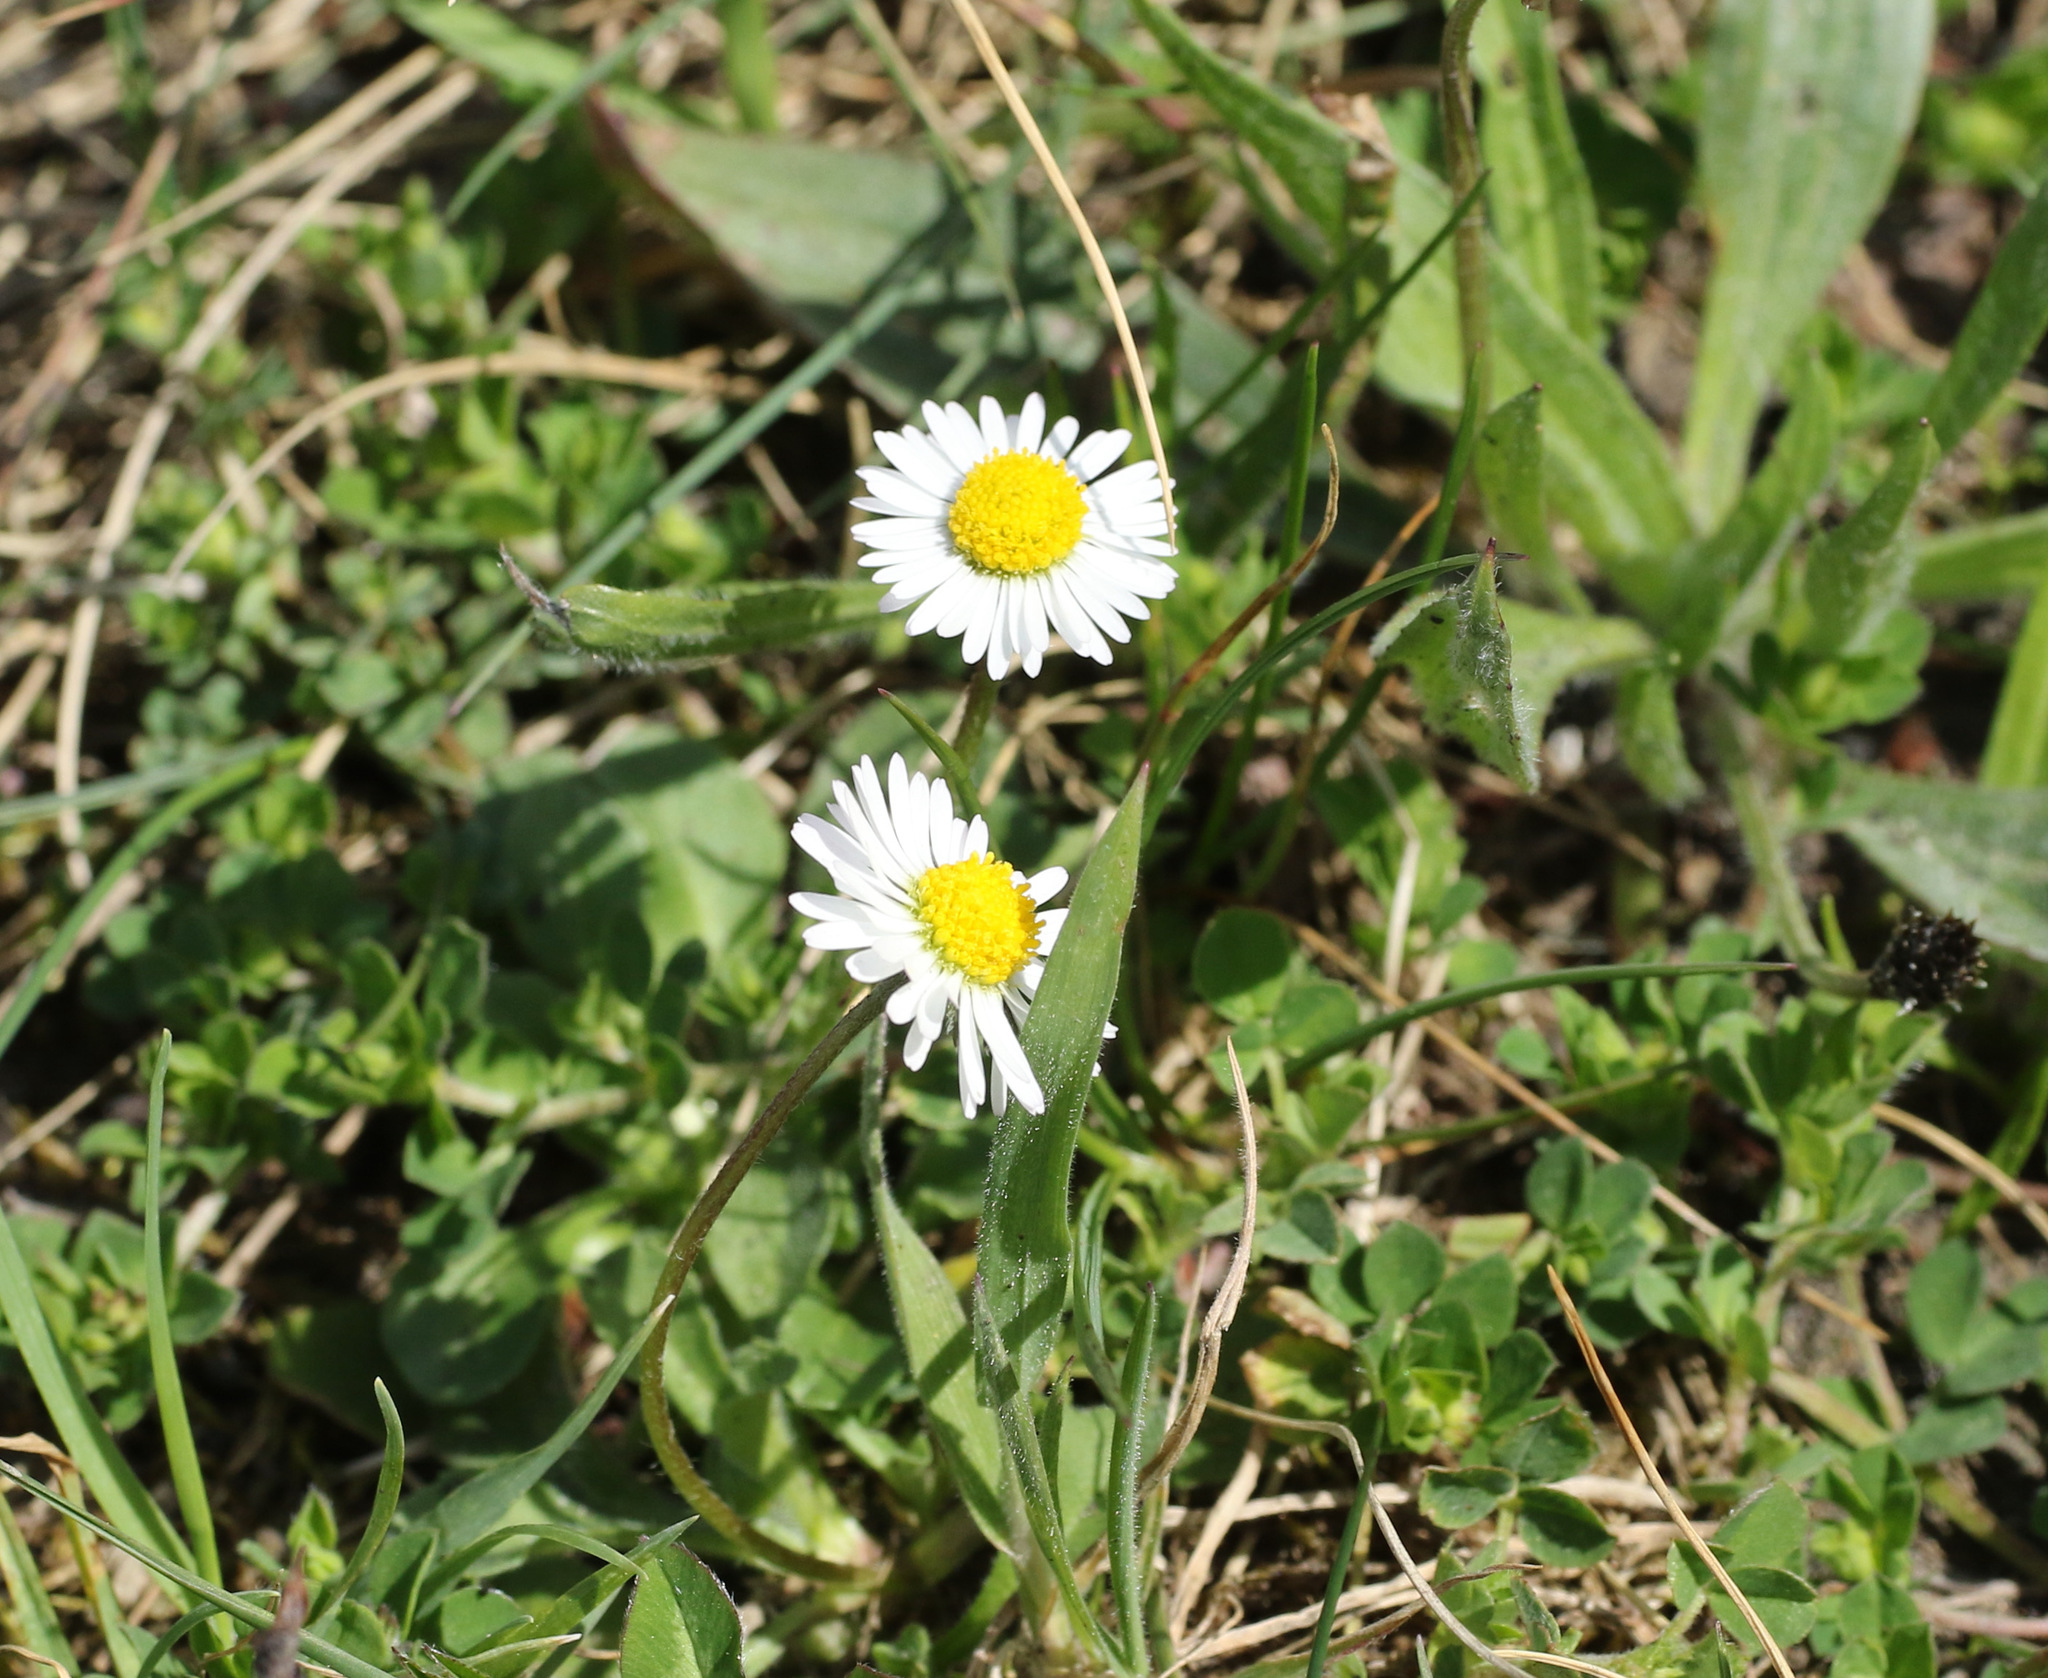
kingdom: Plantae
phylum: Tracheophyta
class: Magnoliopsida
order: Asterales
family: Asteraceae
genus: Bellis
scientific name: Bellis perennis
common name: Lawndaisy
